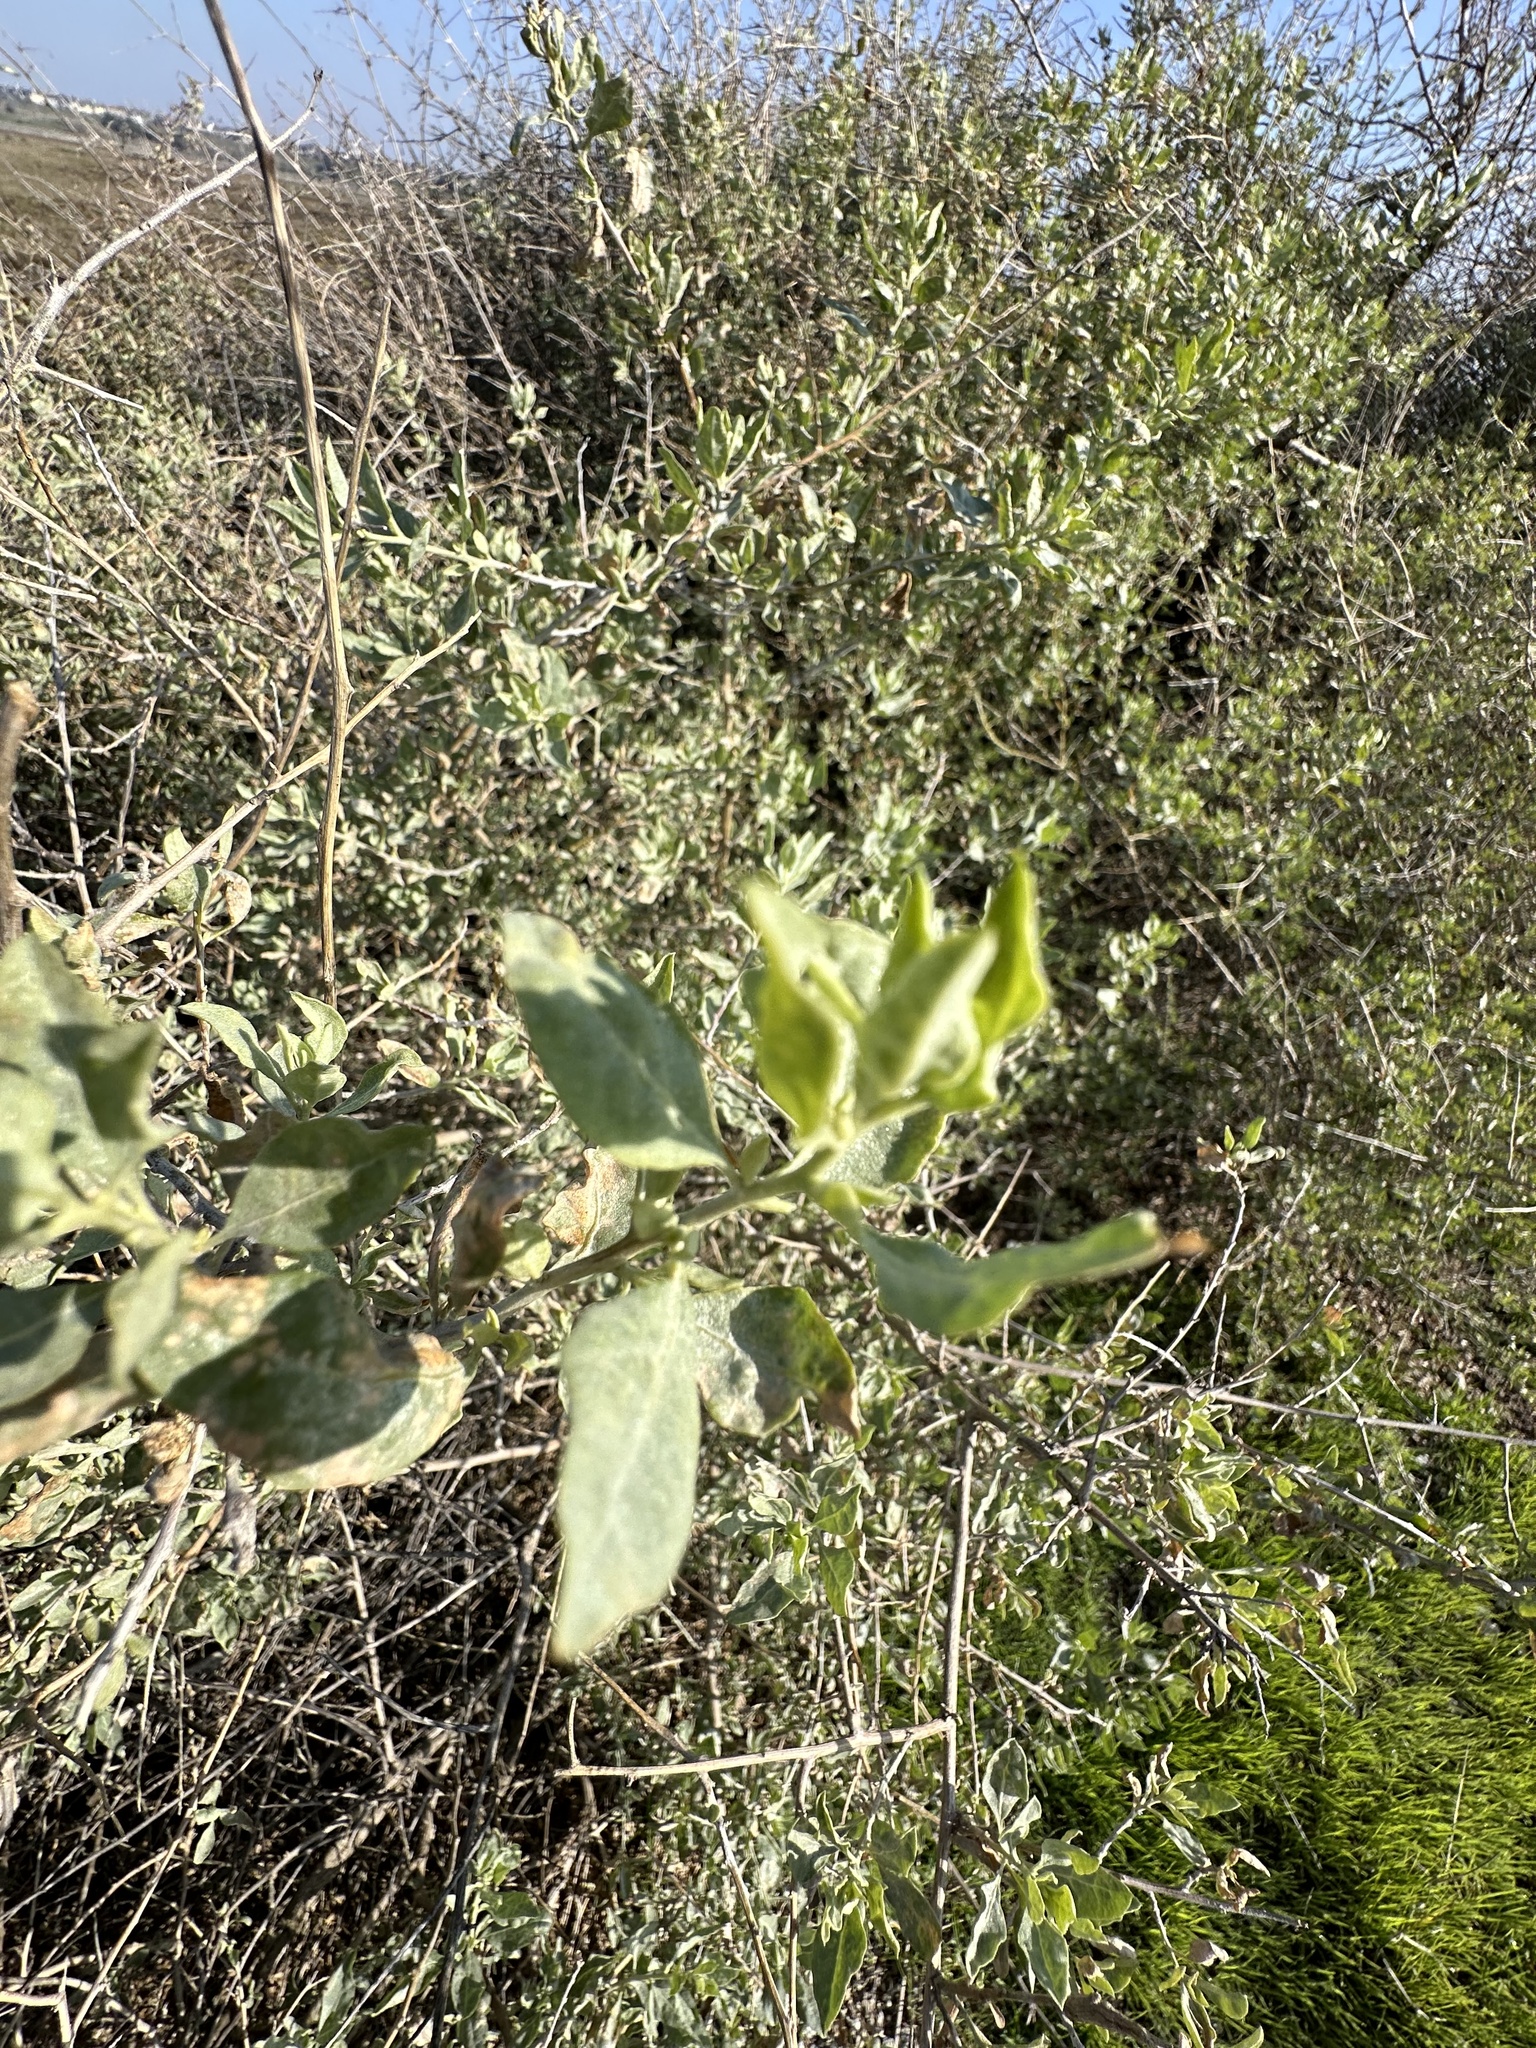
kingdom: Plantae
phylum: Tracheophyta
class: Magnoliopsida
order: Caryophyllales
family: Amaranthaceae
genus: Atriplex
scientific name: Atriplex lentiformis
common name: Big saltbush
